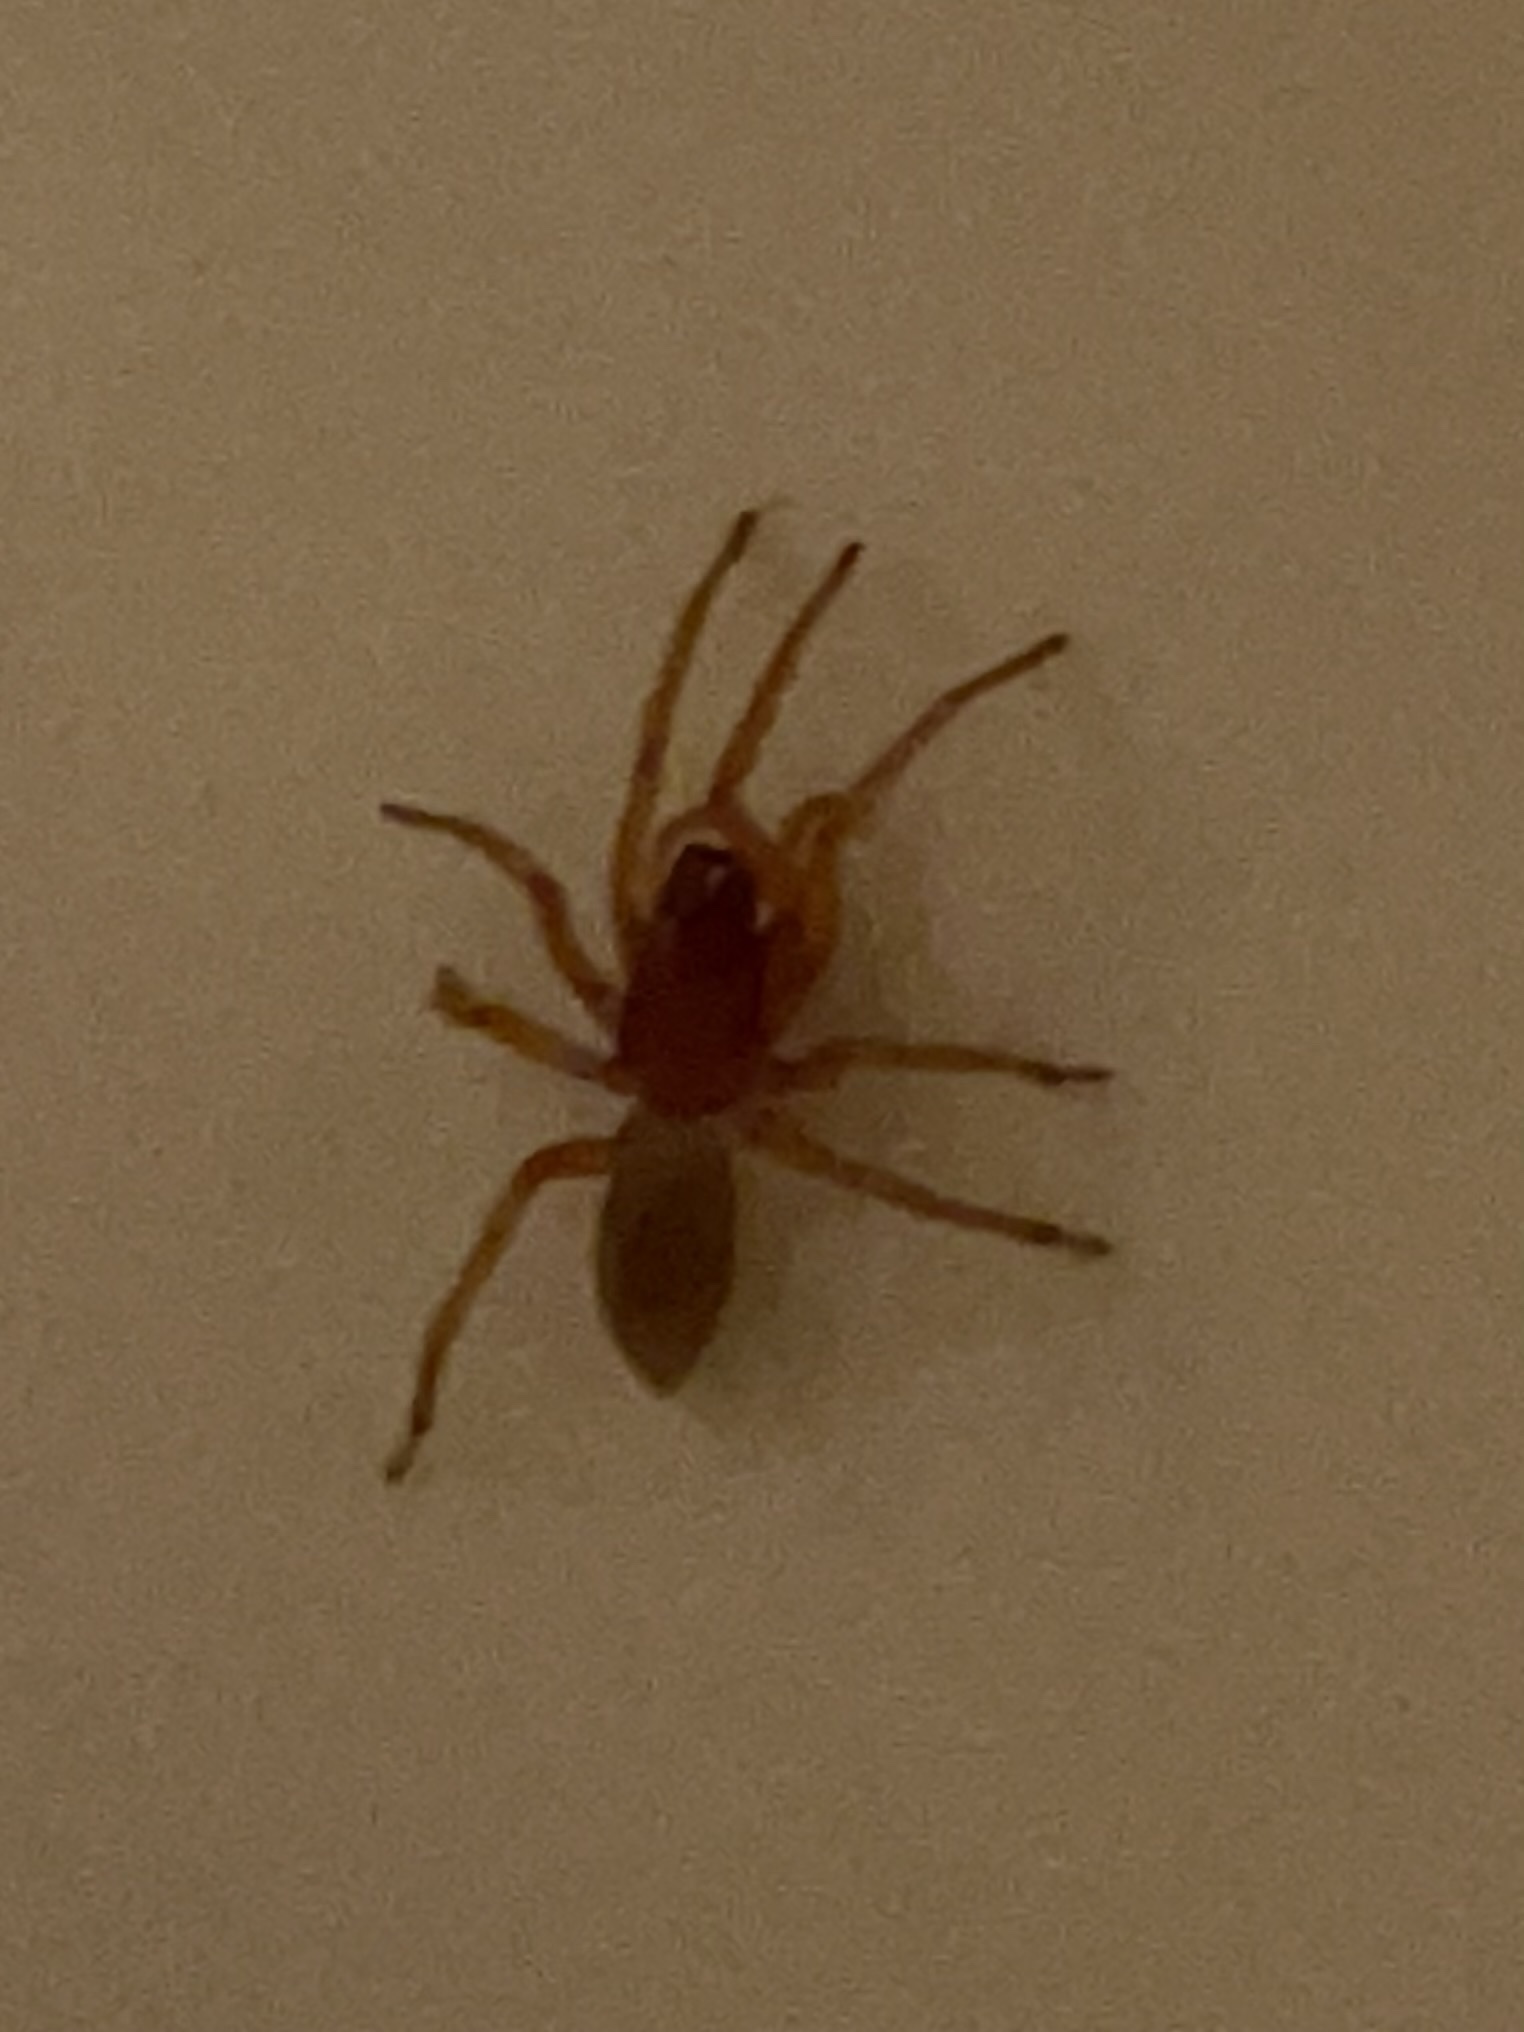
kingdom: Animalia
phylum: Arthropoda
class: Arachnida
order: Araneae
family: Dysderidae
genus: Dysdera
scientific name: Dysdera crocata
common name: Woodlouse spider
